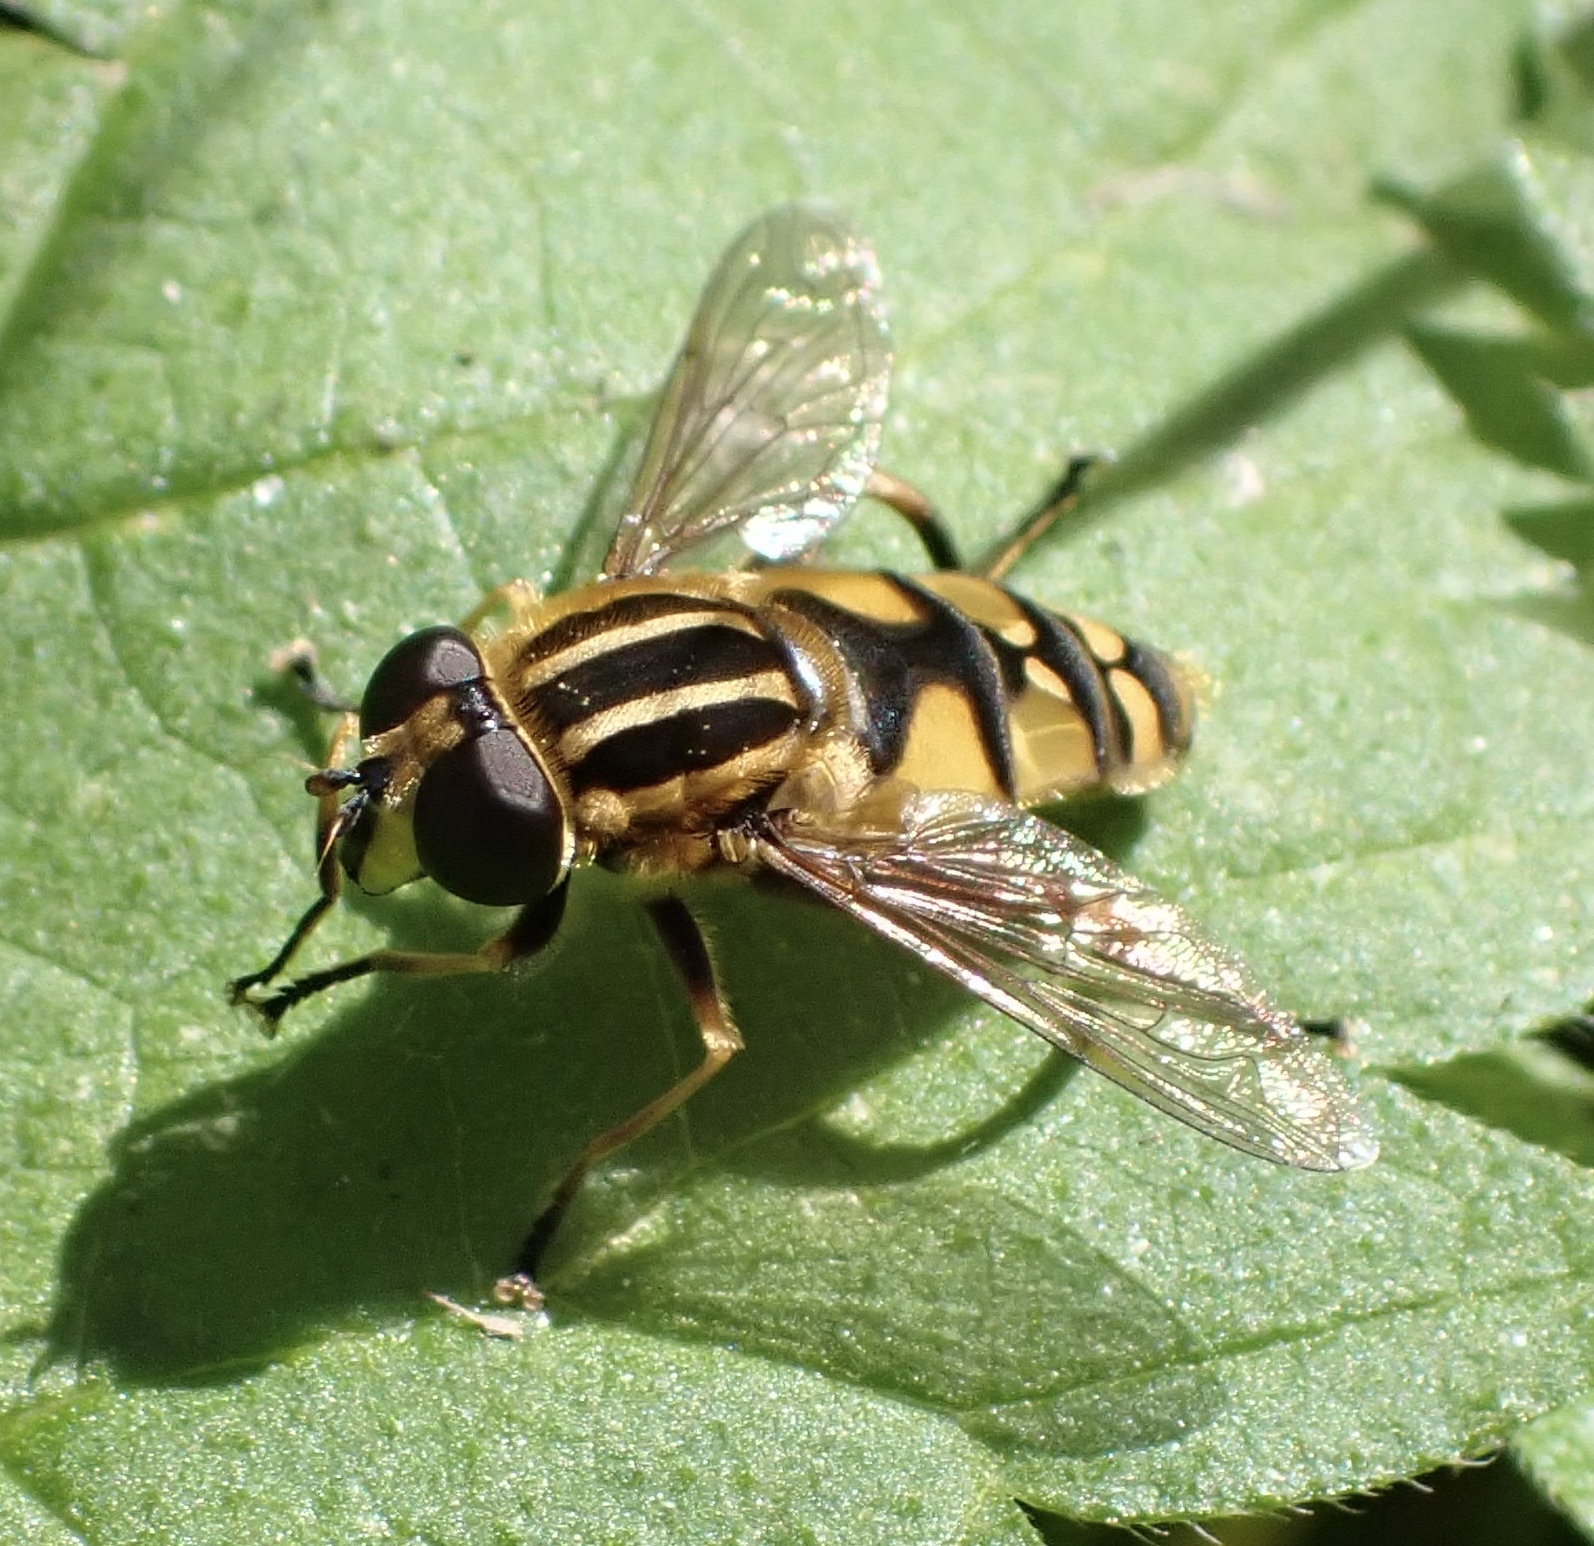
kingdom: Animalia
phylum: Arthropoda
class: Insecta
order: Diptera
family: Syrphidae
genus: Helophilus
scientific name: Helophilus pendulus
